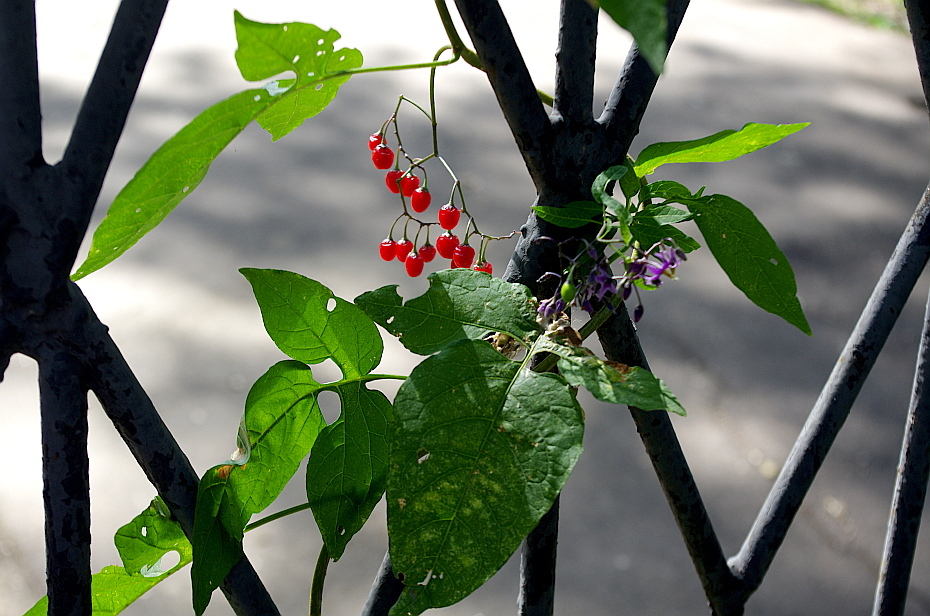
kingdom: Plantae
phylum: Tracheophyta
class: Magnoliopsida
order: Solanales
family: Solanaceae
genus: Solanum
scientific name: Solanum dulcamara
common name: Climbing nightshade
